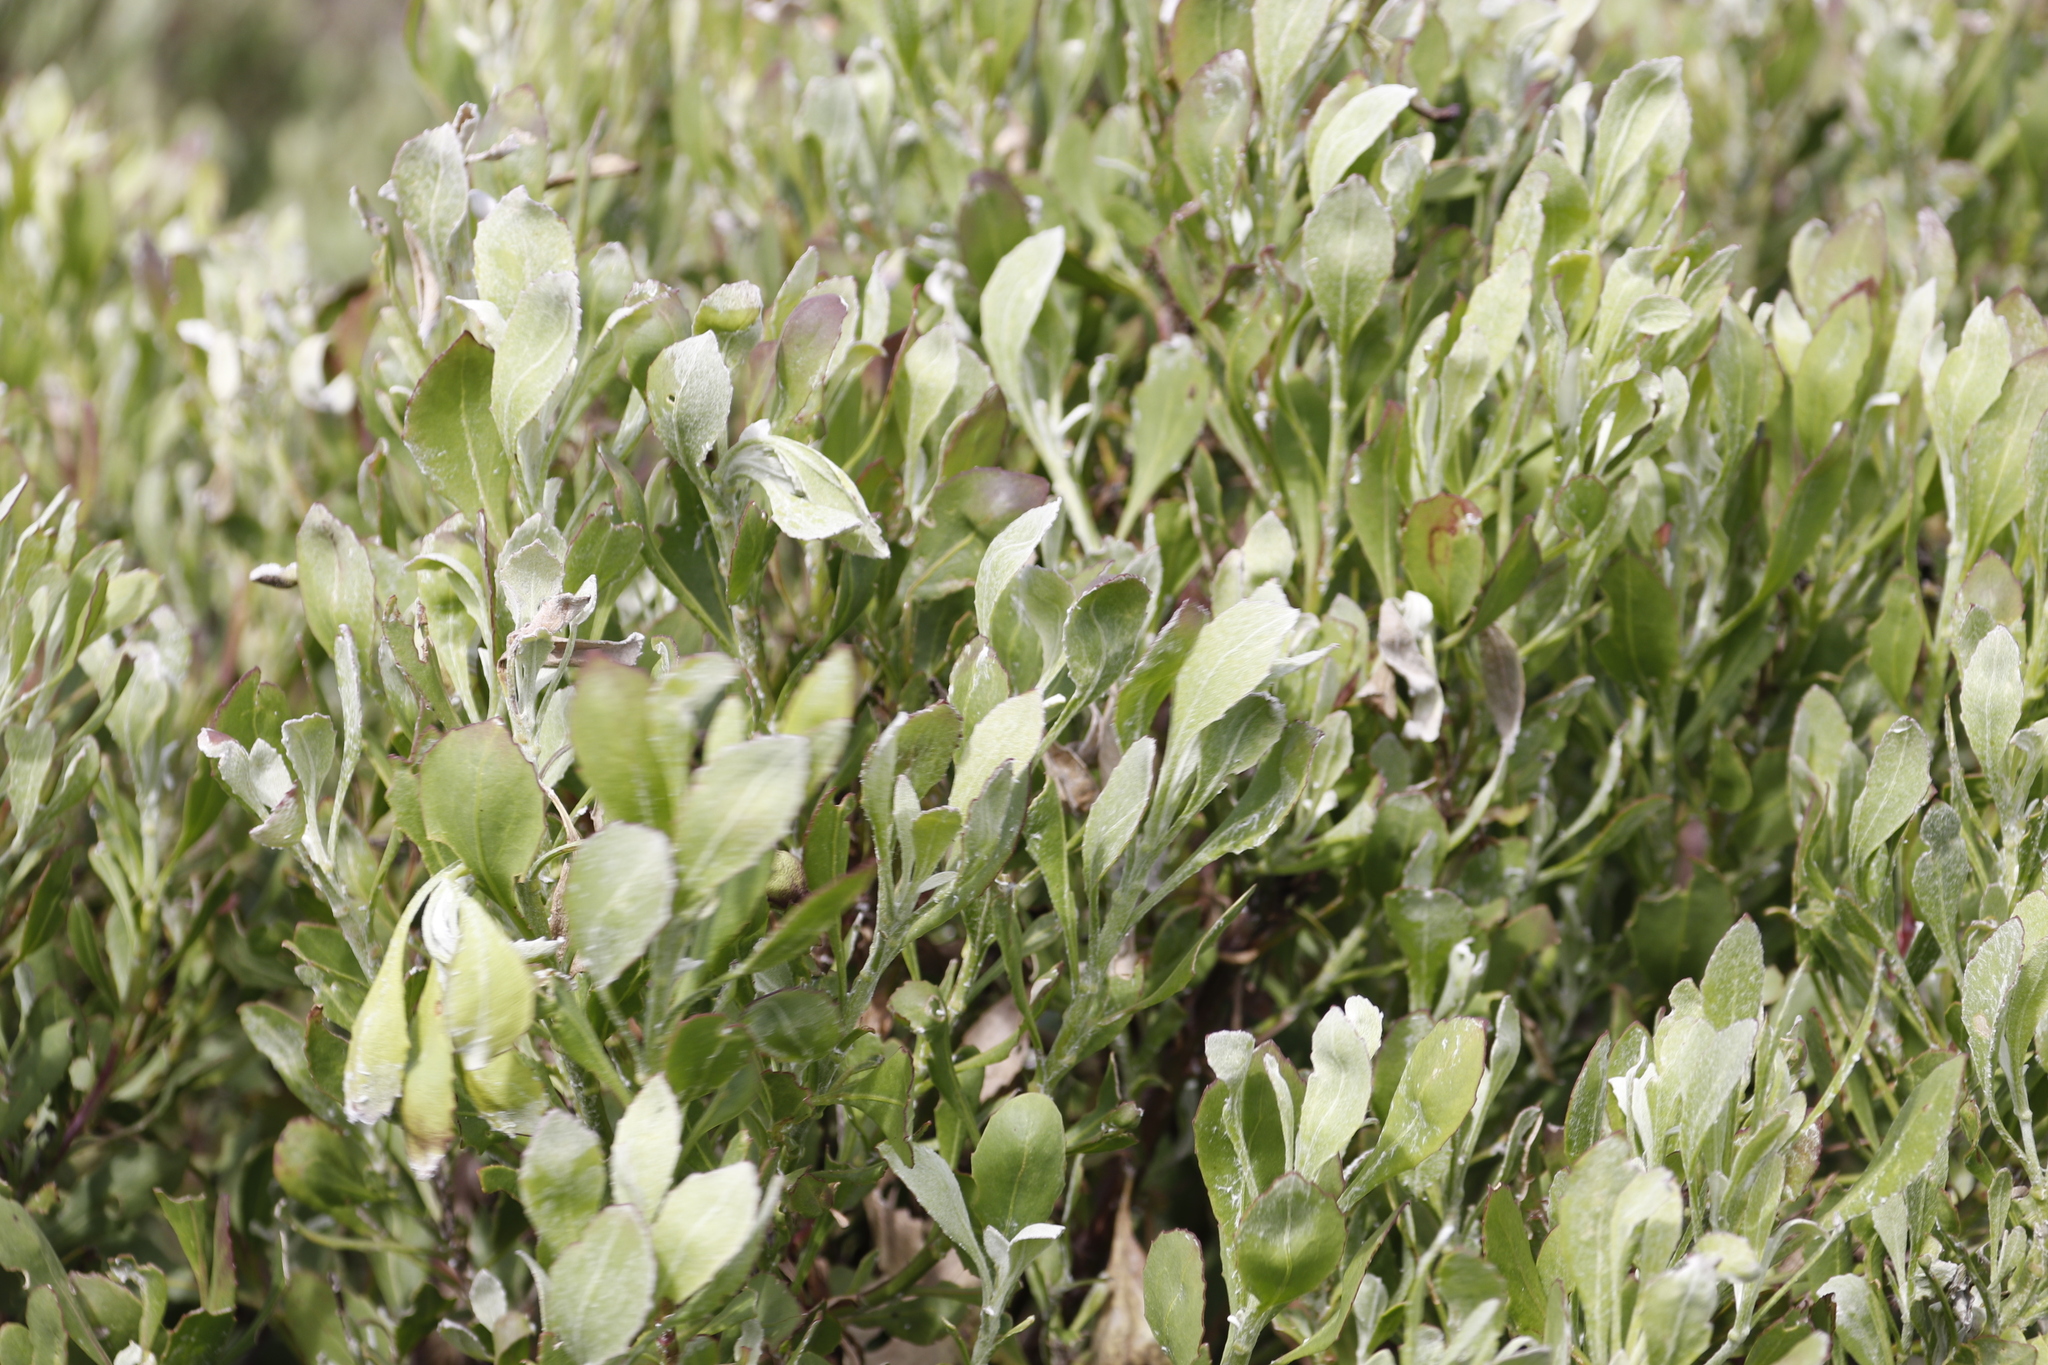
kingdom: Plantae
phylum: Tracheophyta
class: Magnoliopsida
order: Asterales
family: Asteraceae
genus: Osteospermum
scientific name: Osteospermum moniliferum
